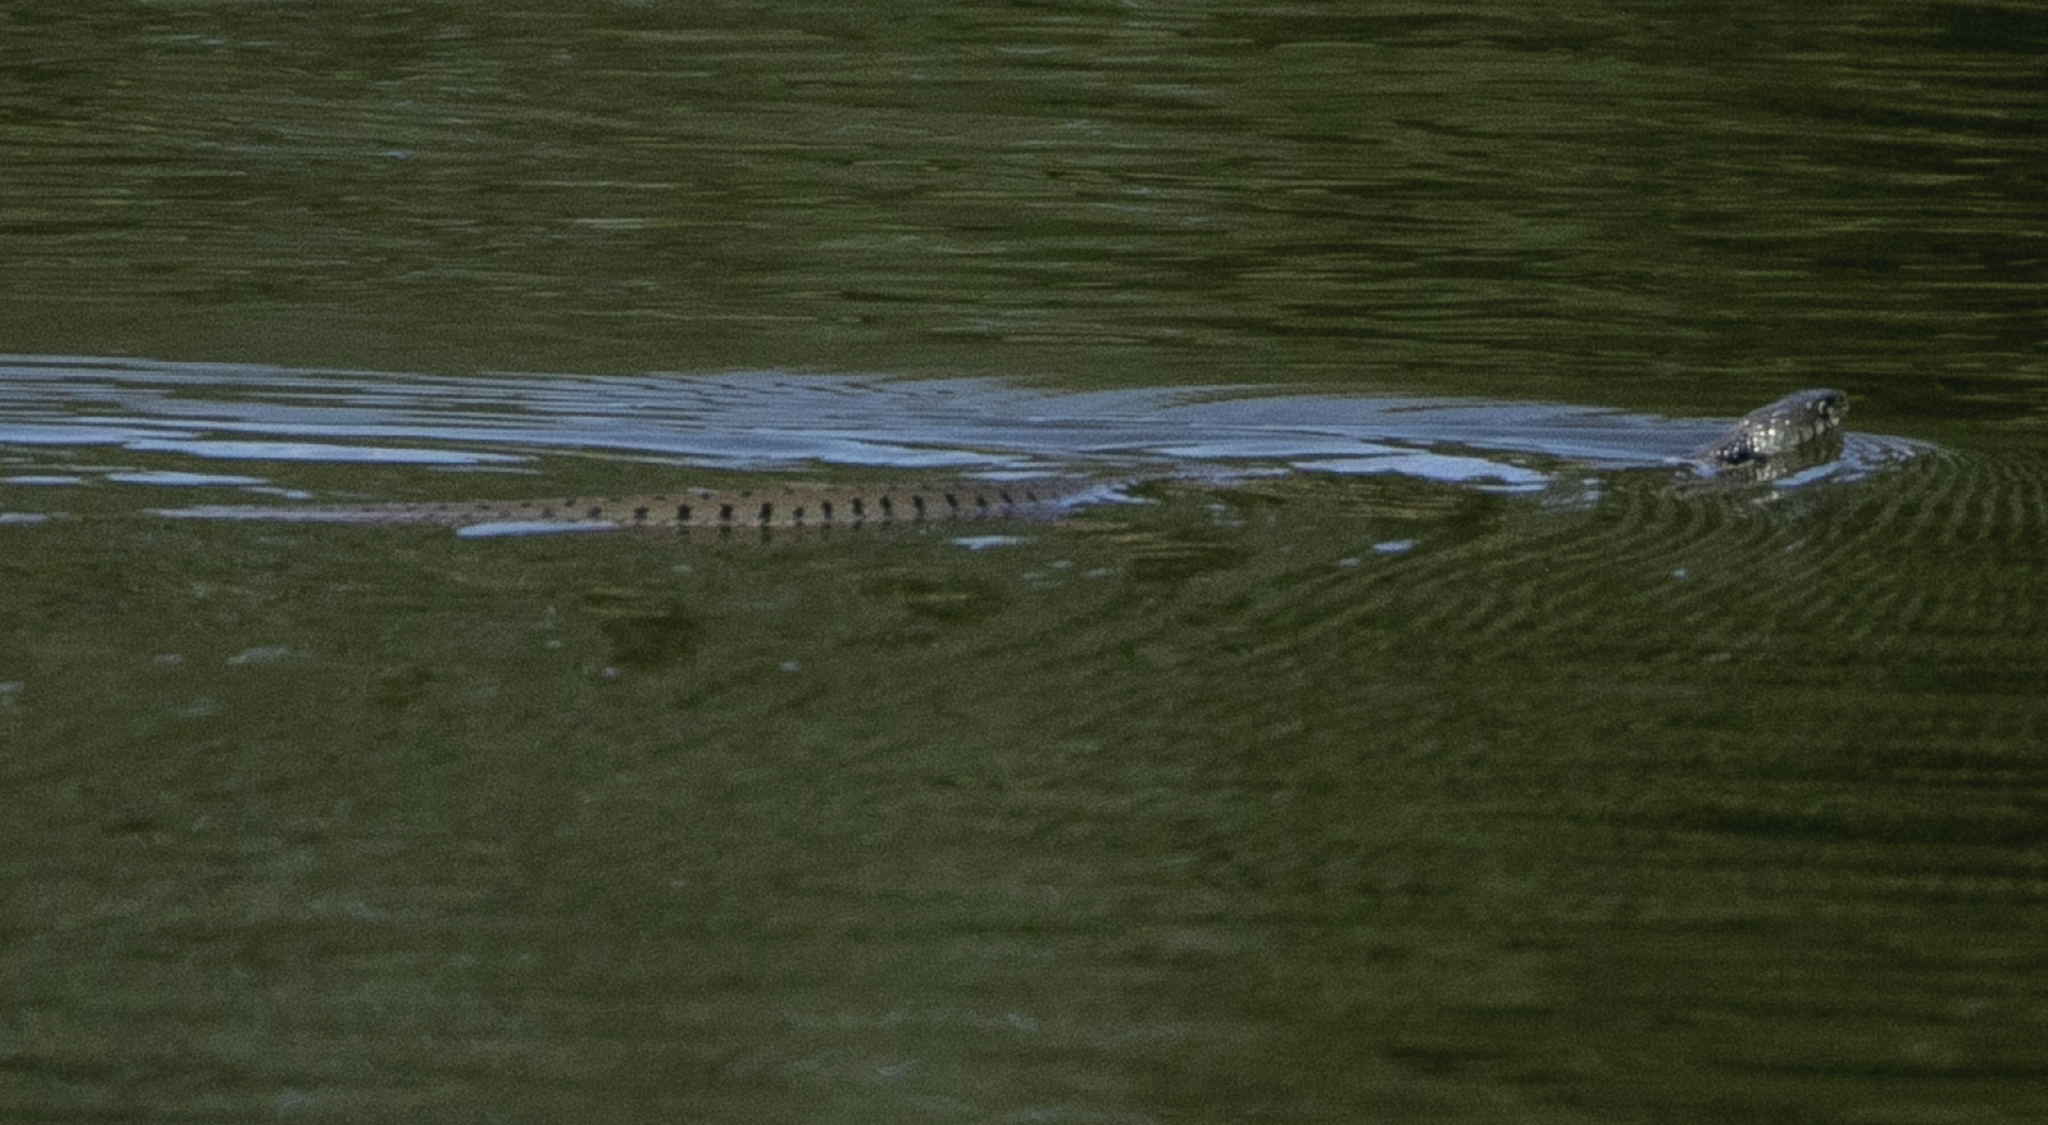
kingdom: Animalia
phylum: Chordata
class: Squamata
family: Colubridae
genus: Natrix
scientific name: Natrix helvetica
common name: Banded grass snake
